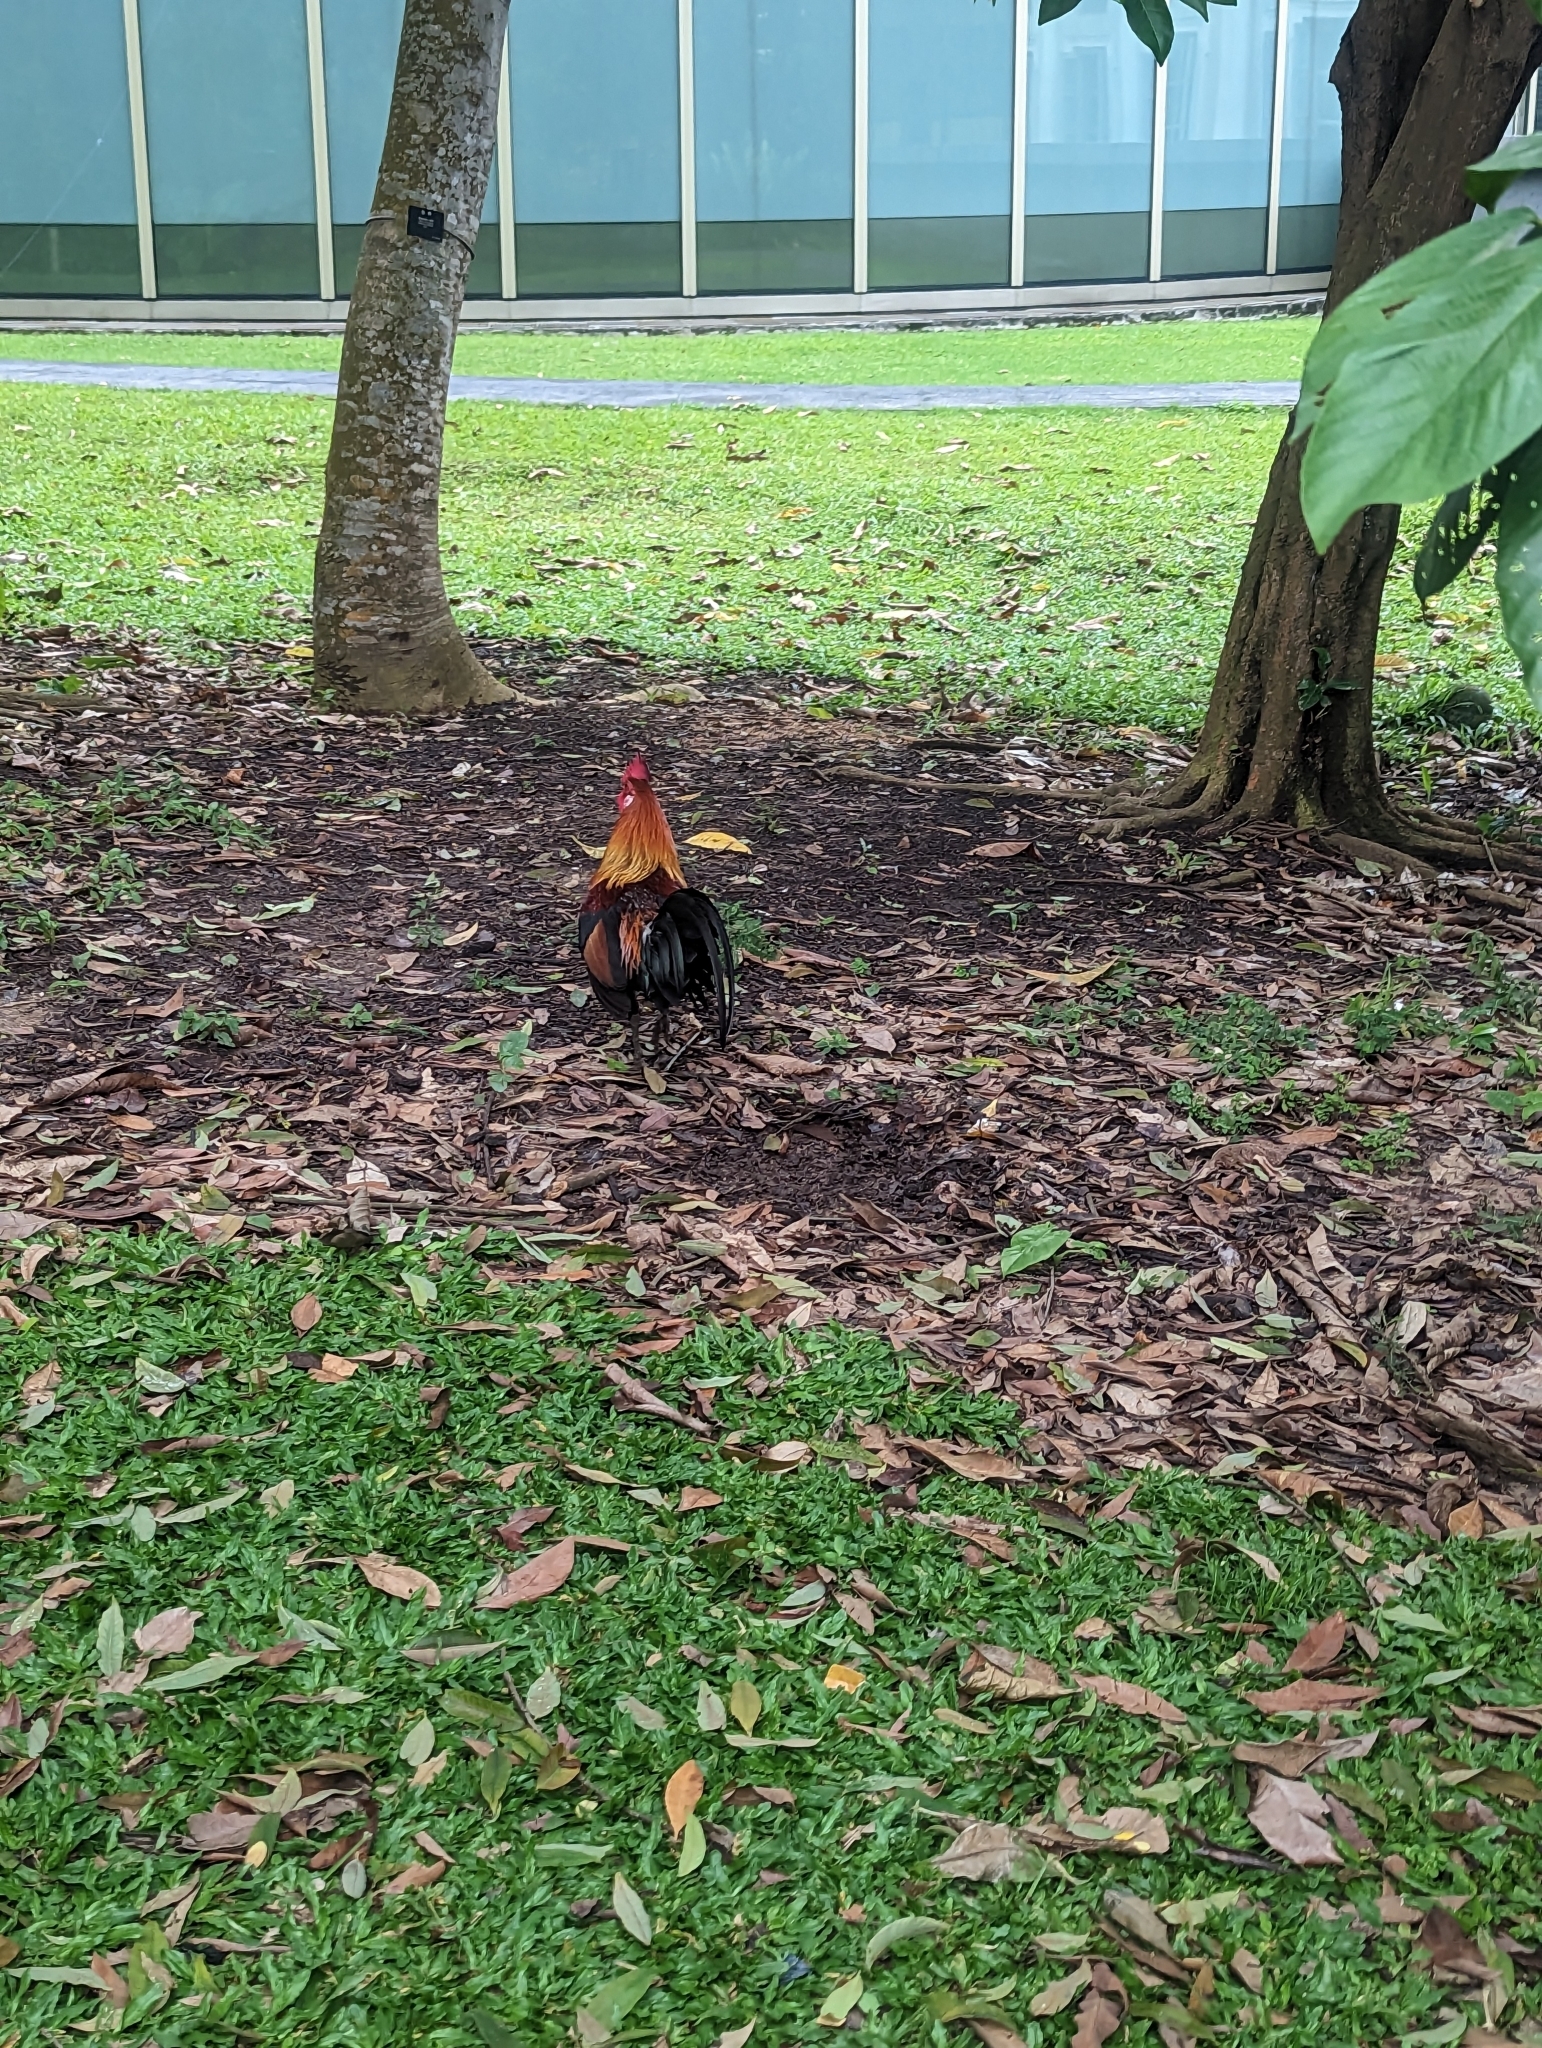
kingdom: Animalia
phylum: Chordata
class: Aves
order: Galliformes
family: Phasianidae
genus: Gallus
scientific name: Gallus gallus
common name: Red junglefowl
